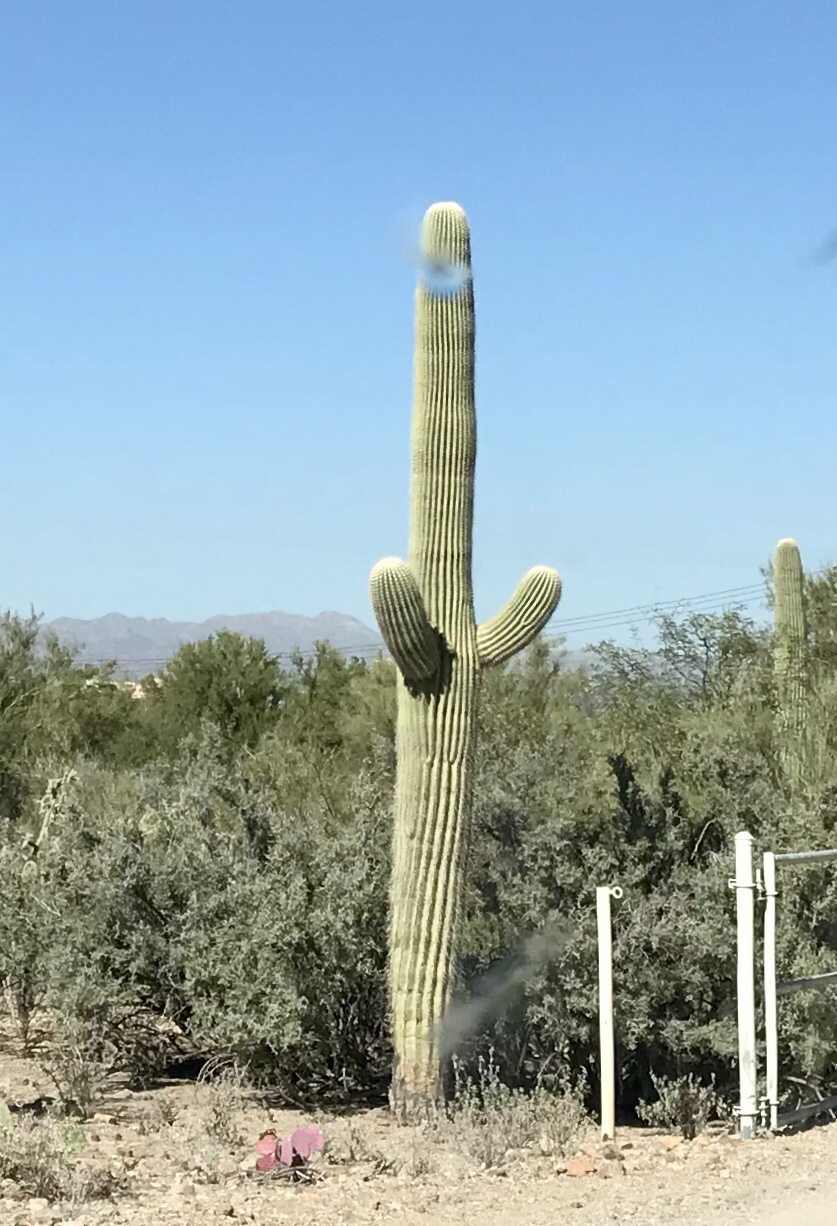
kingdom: Plantae
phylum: Tracheophyta
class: Magnoliopsida
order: Caryophyllales
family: Cactaceae
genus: Carnegiea
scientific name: Carnegiea gigantea
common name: Saguaro
